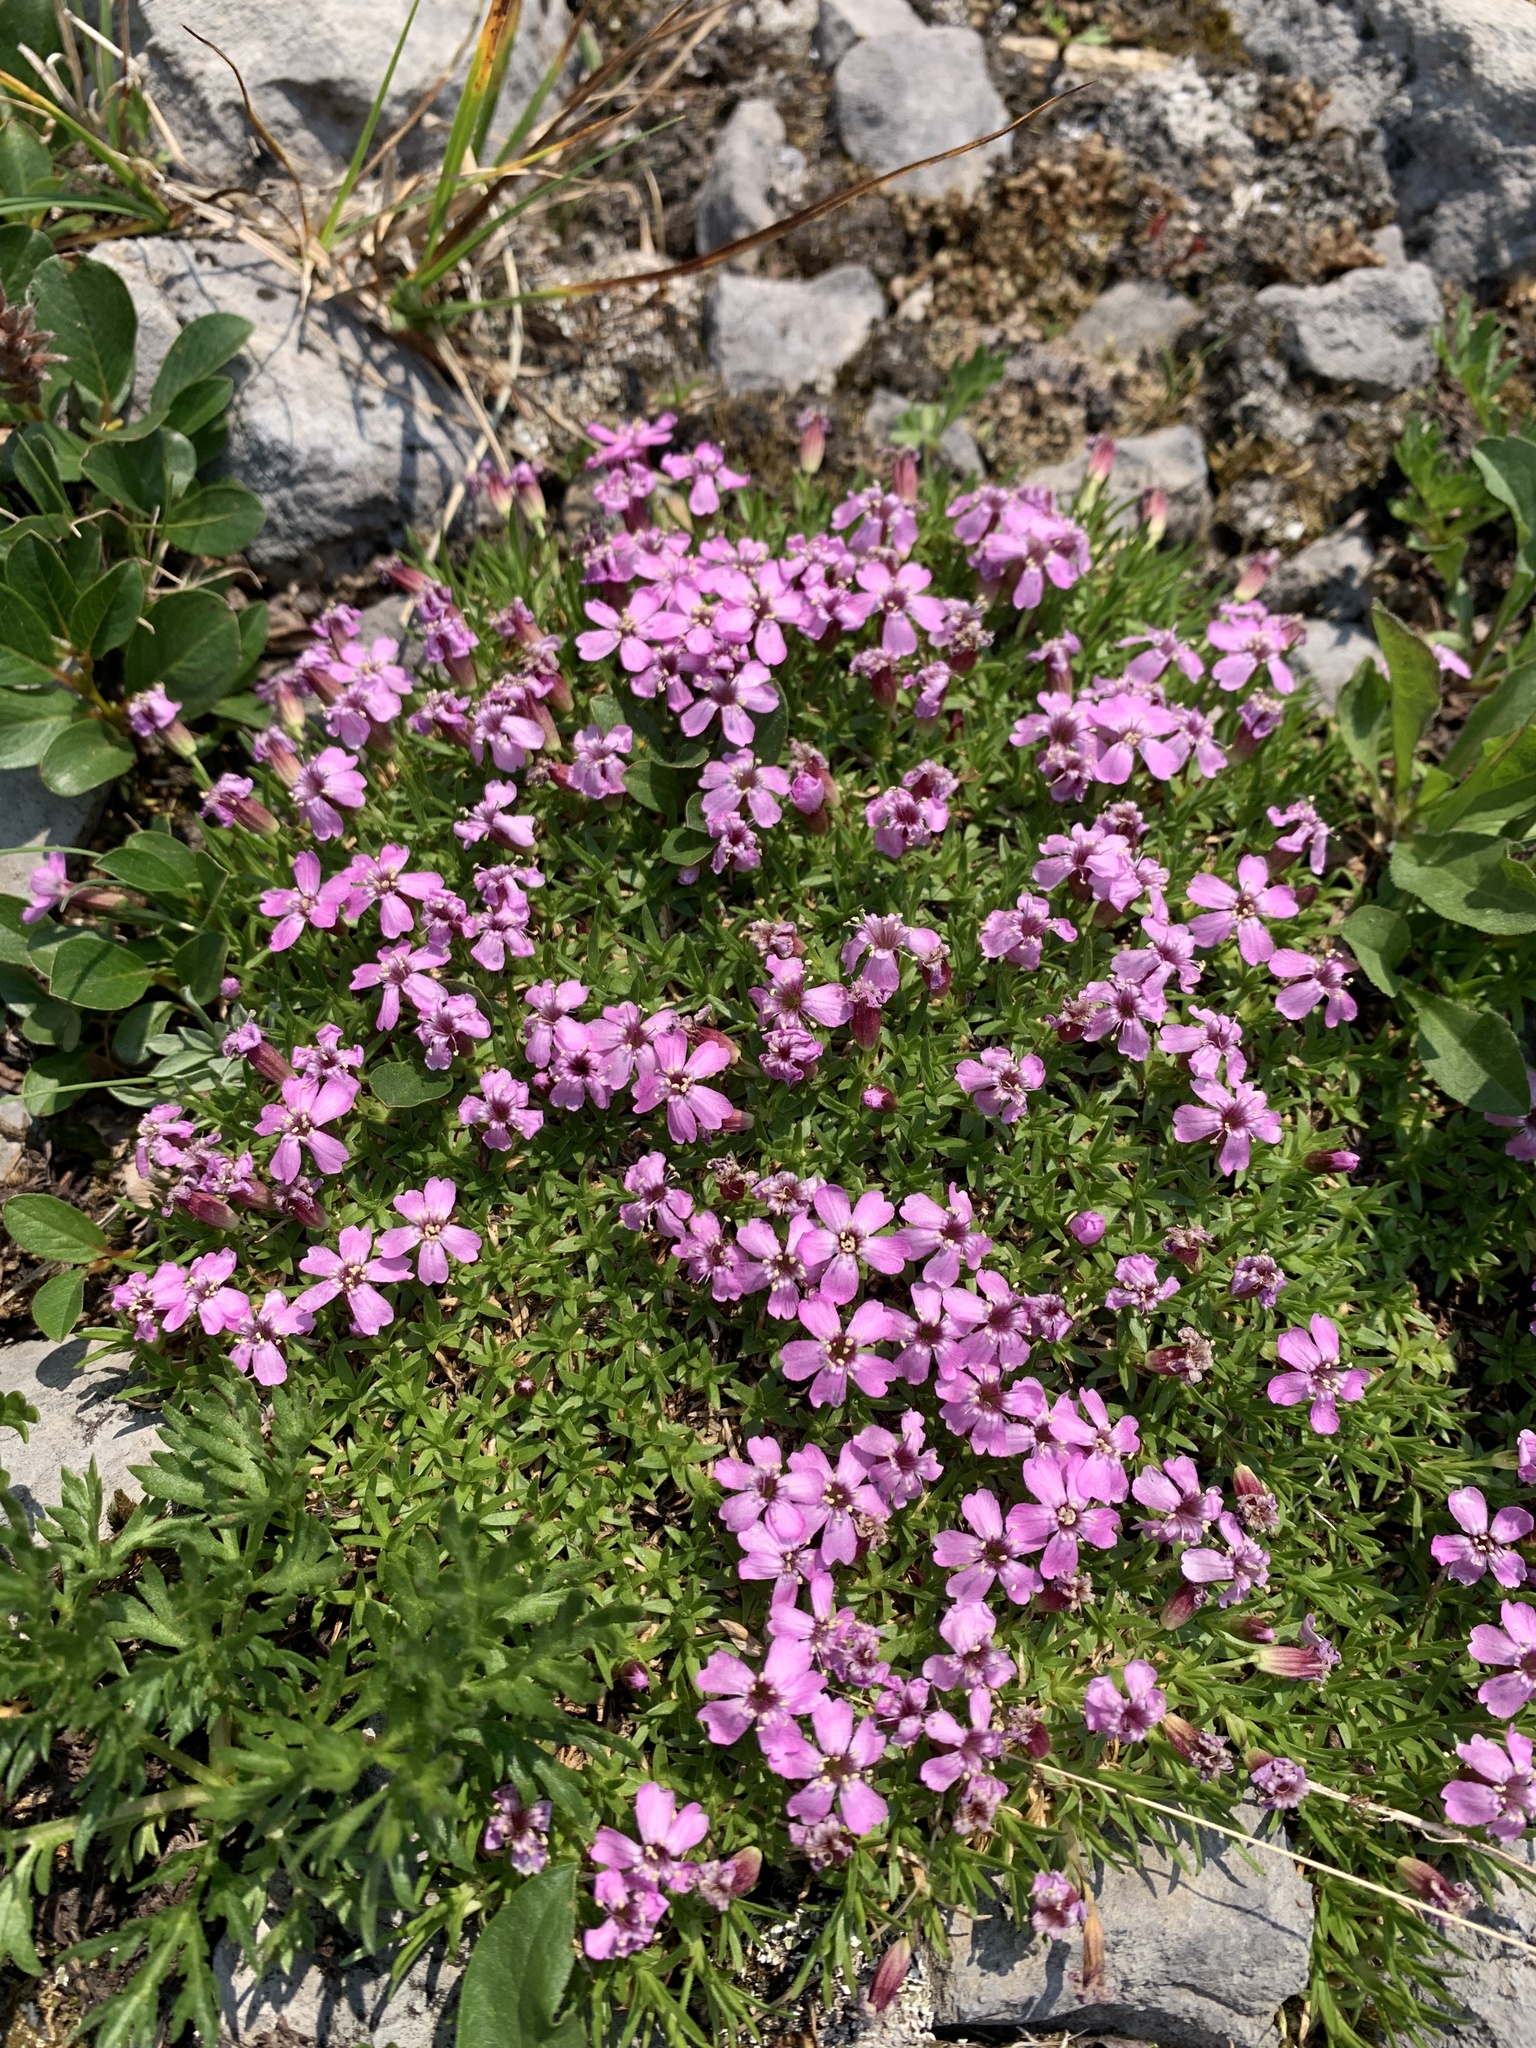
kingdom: Plantae
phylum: Tracheophyta
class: Magnoliopsida
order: Caryophyllales
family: Caryophyllaceae
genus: Silene
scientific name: Silene acaulis
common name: Moss campion
